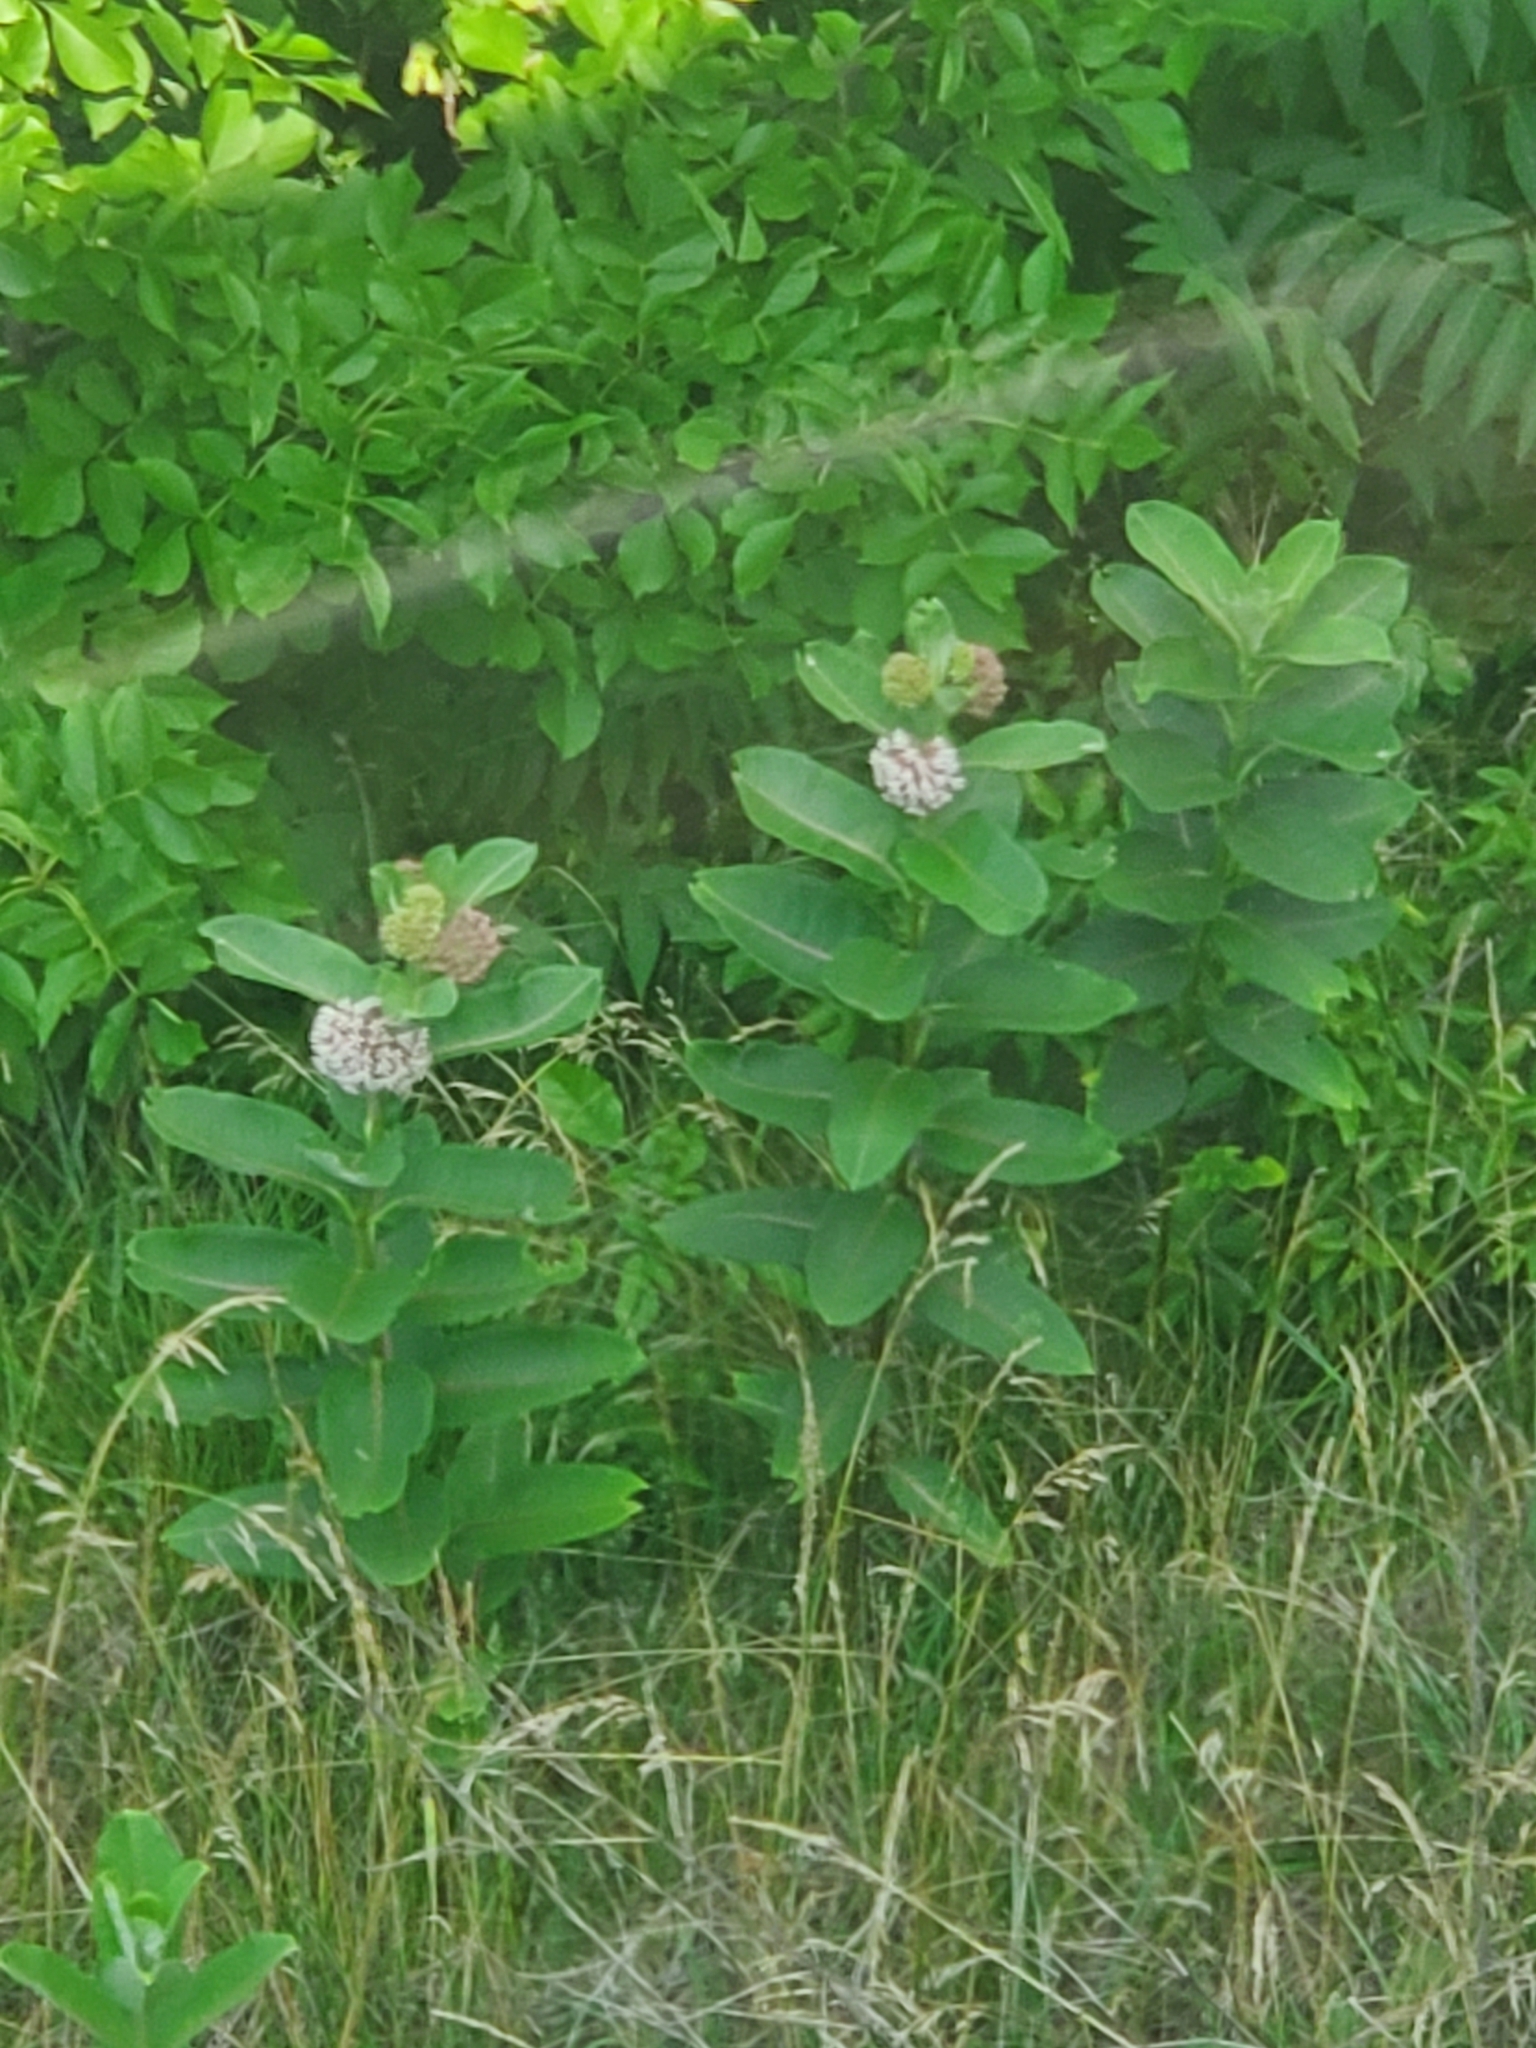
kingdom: Plantae
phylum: Tracheophyta
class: Magnoliopsida
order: Gentianales
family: Apocynaceae
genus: Asclepias
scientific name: Asclepias syriaca
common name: Common milkweed
